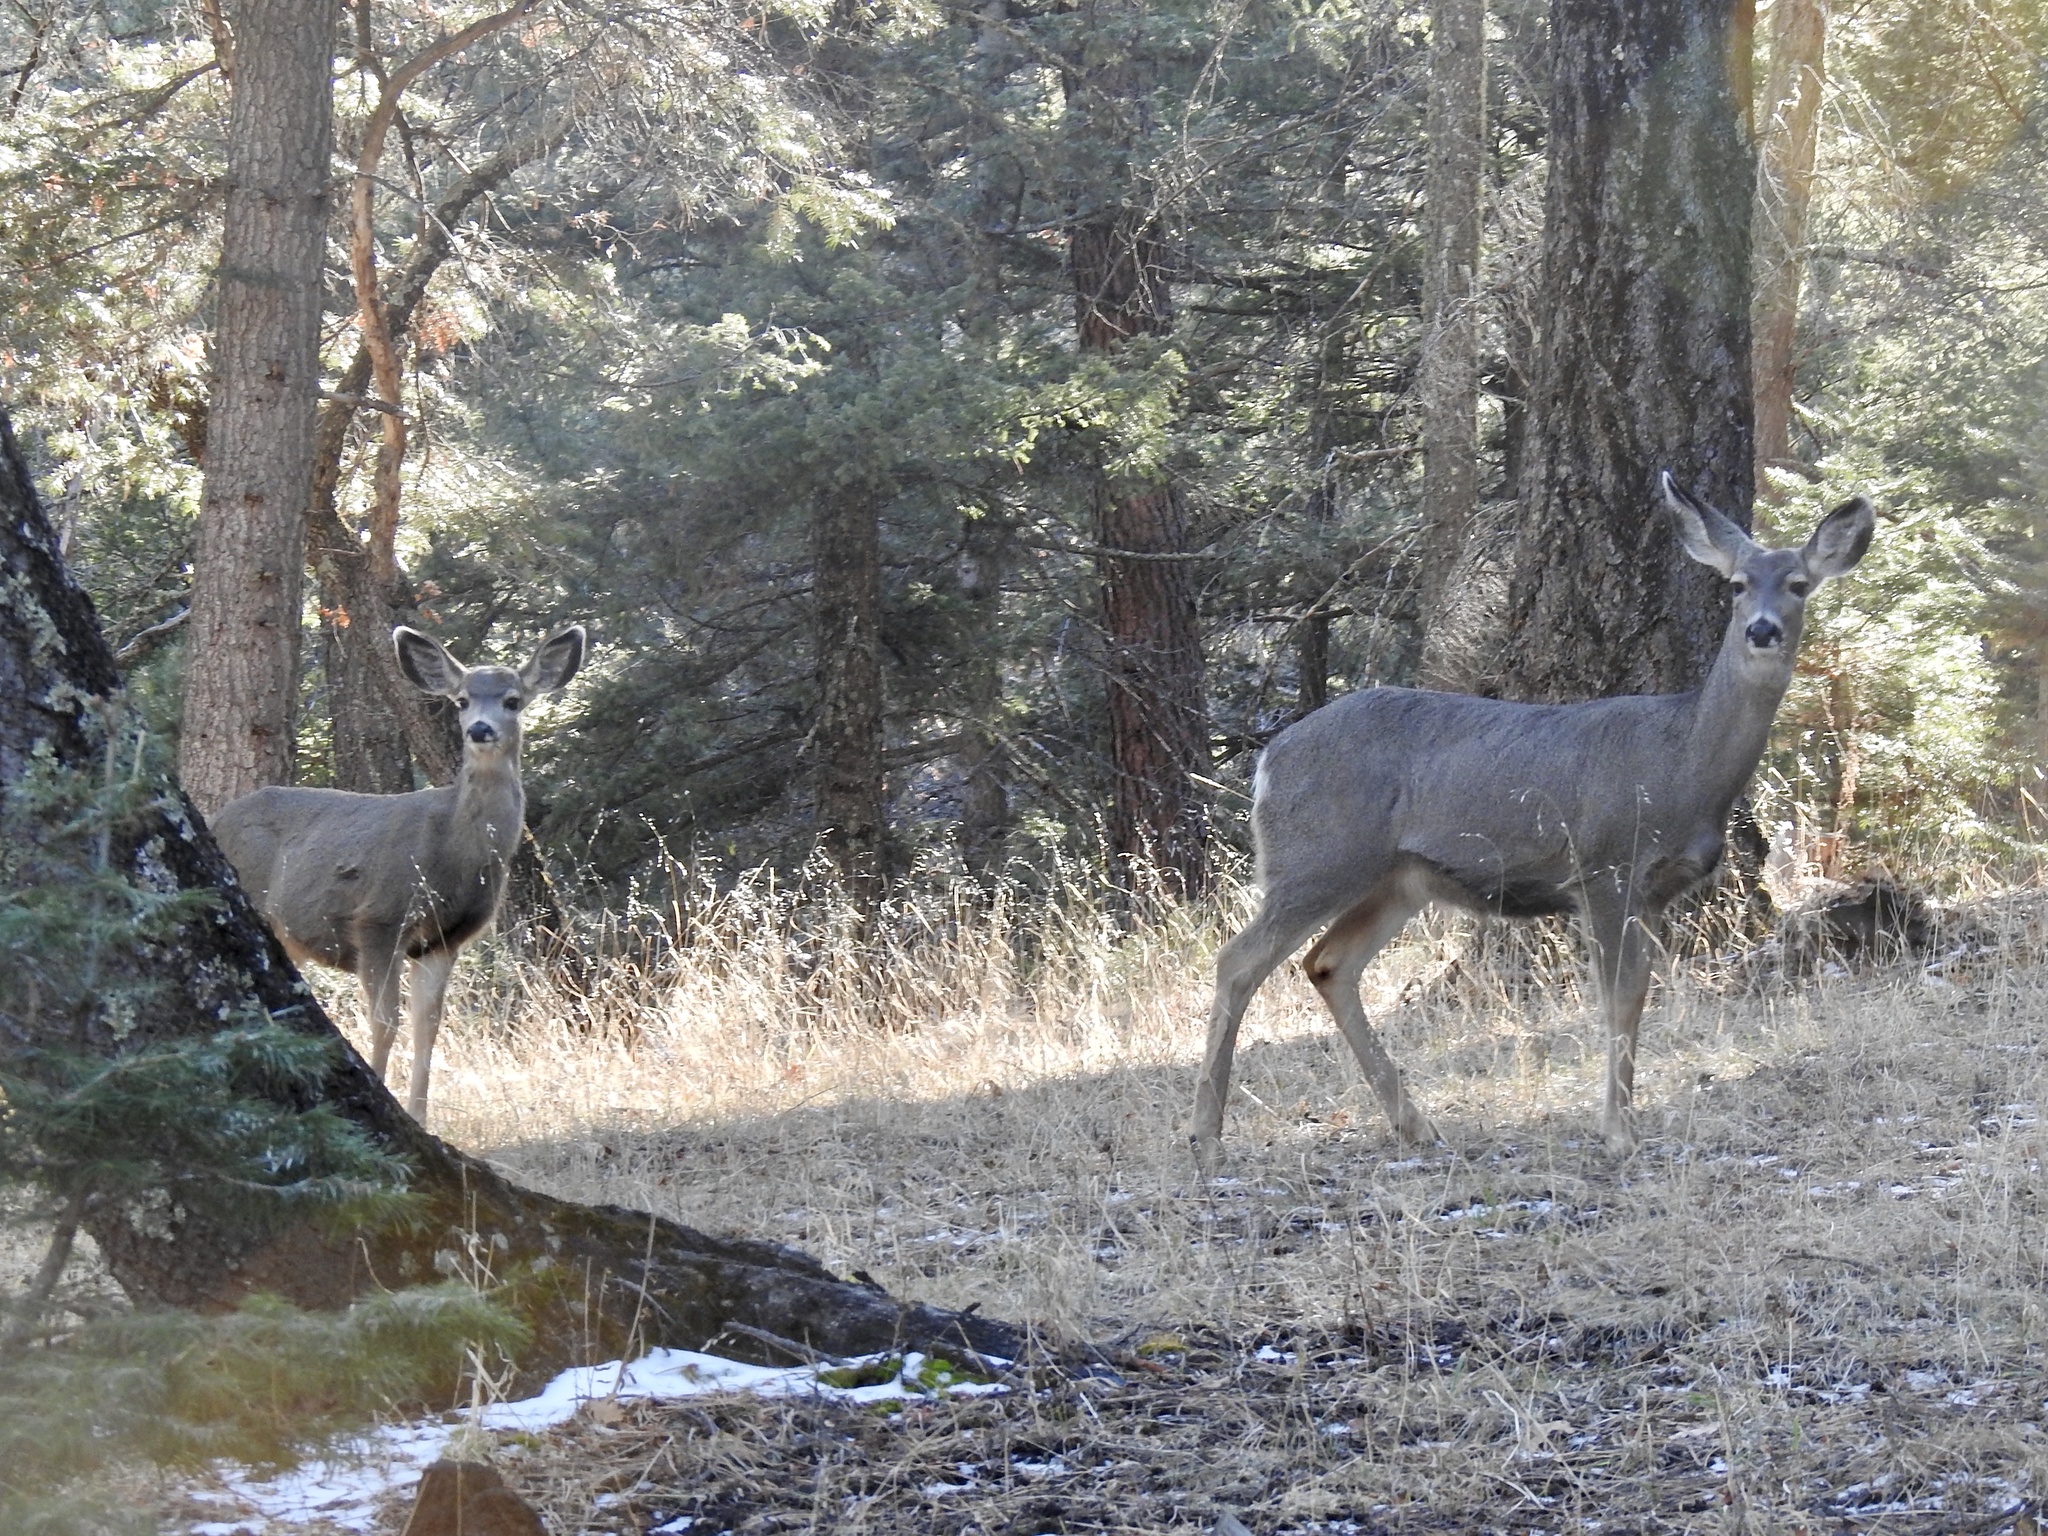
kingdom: Animalia
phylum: Chordata
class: Mammalia
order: Artiodactyla
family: Cervidae
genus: Odocoileus
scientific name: Odocoileus hemionus
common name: Mule deer
